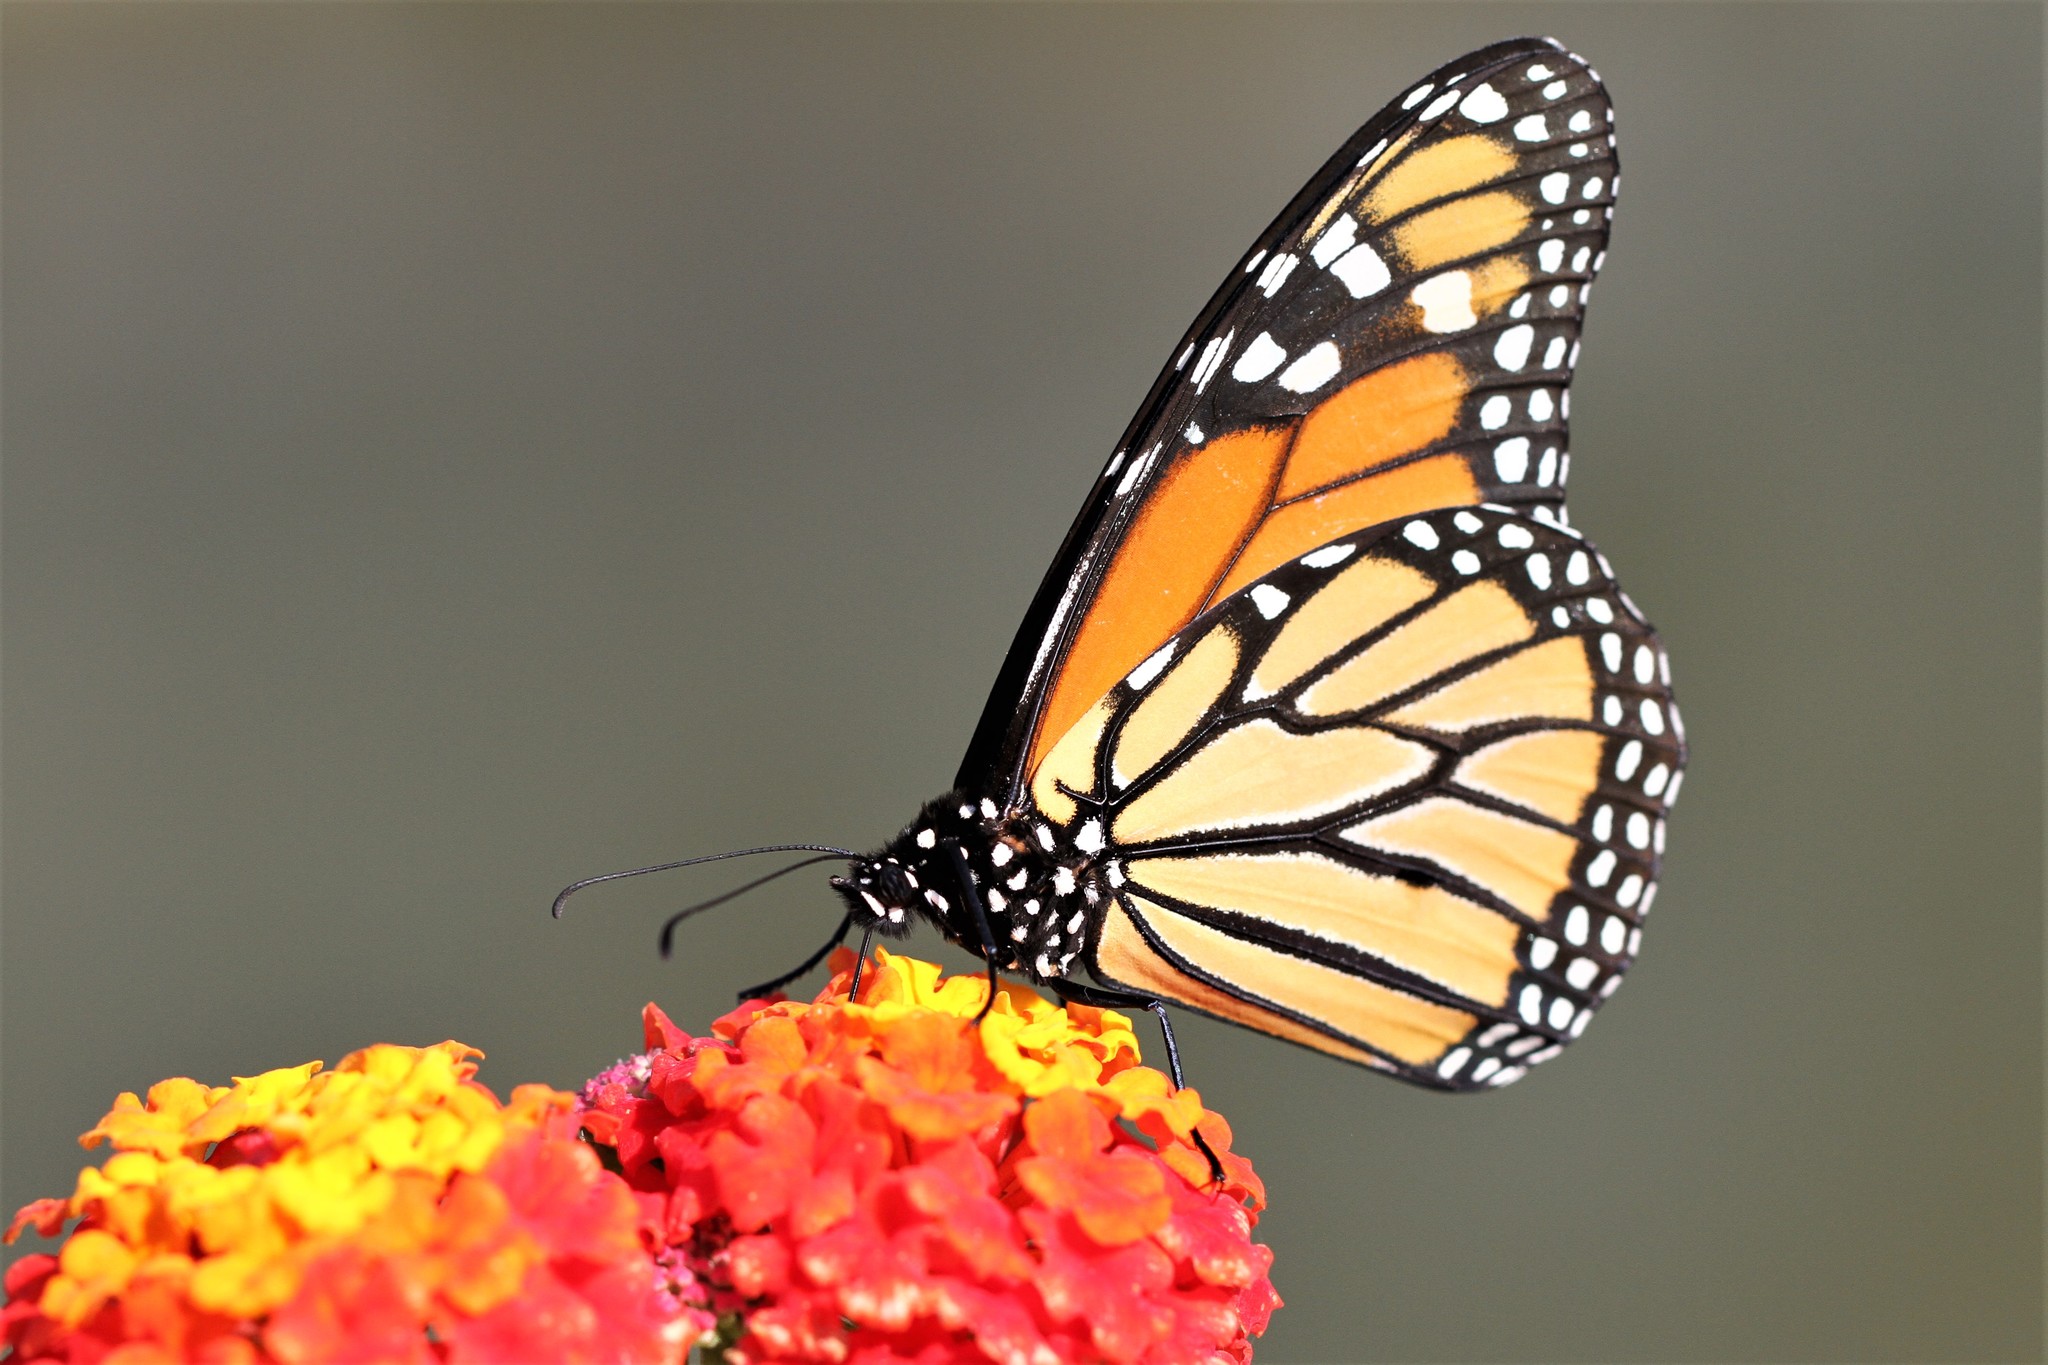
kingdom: Animalia
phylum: Arthropoda
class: Insecta
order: Lepidoptera
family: Nymphalidae
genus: Danaus
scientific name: Danaus plexippus
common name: Monarch
